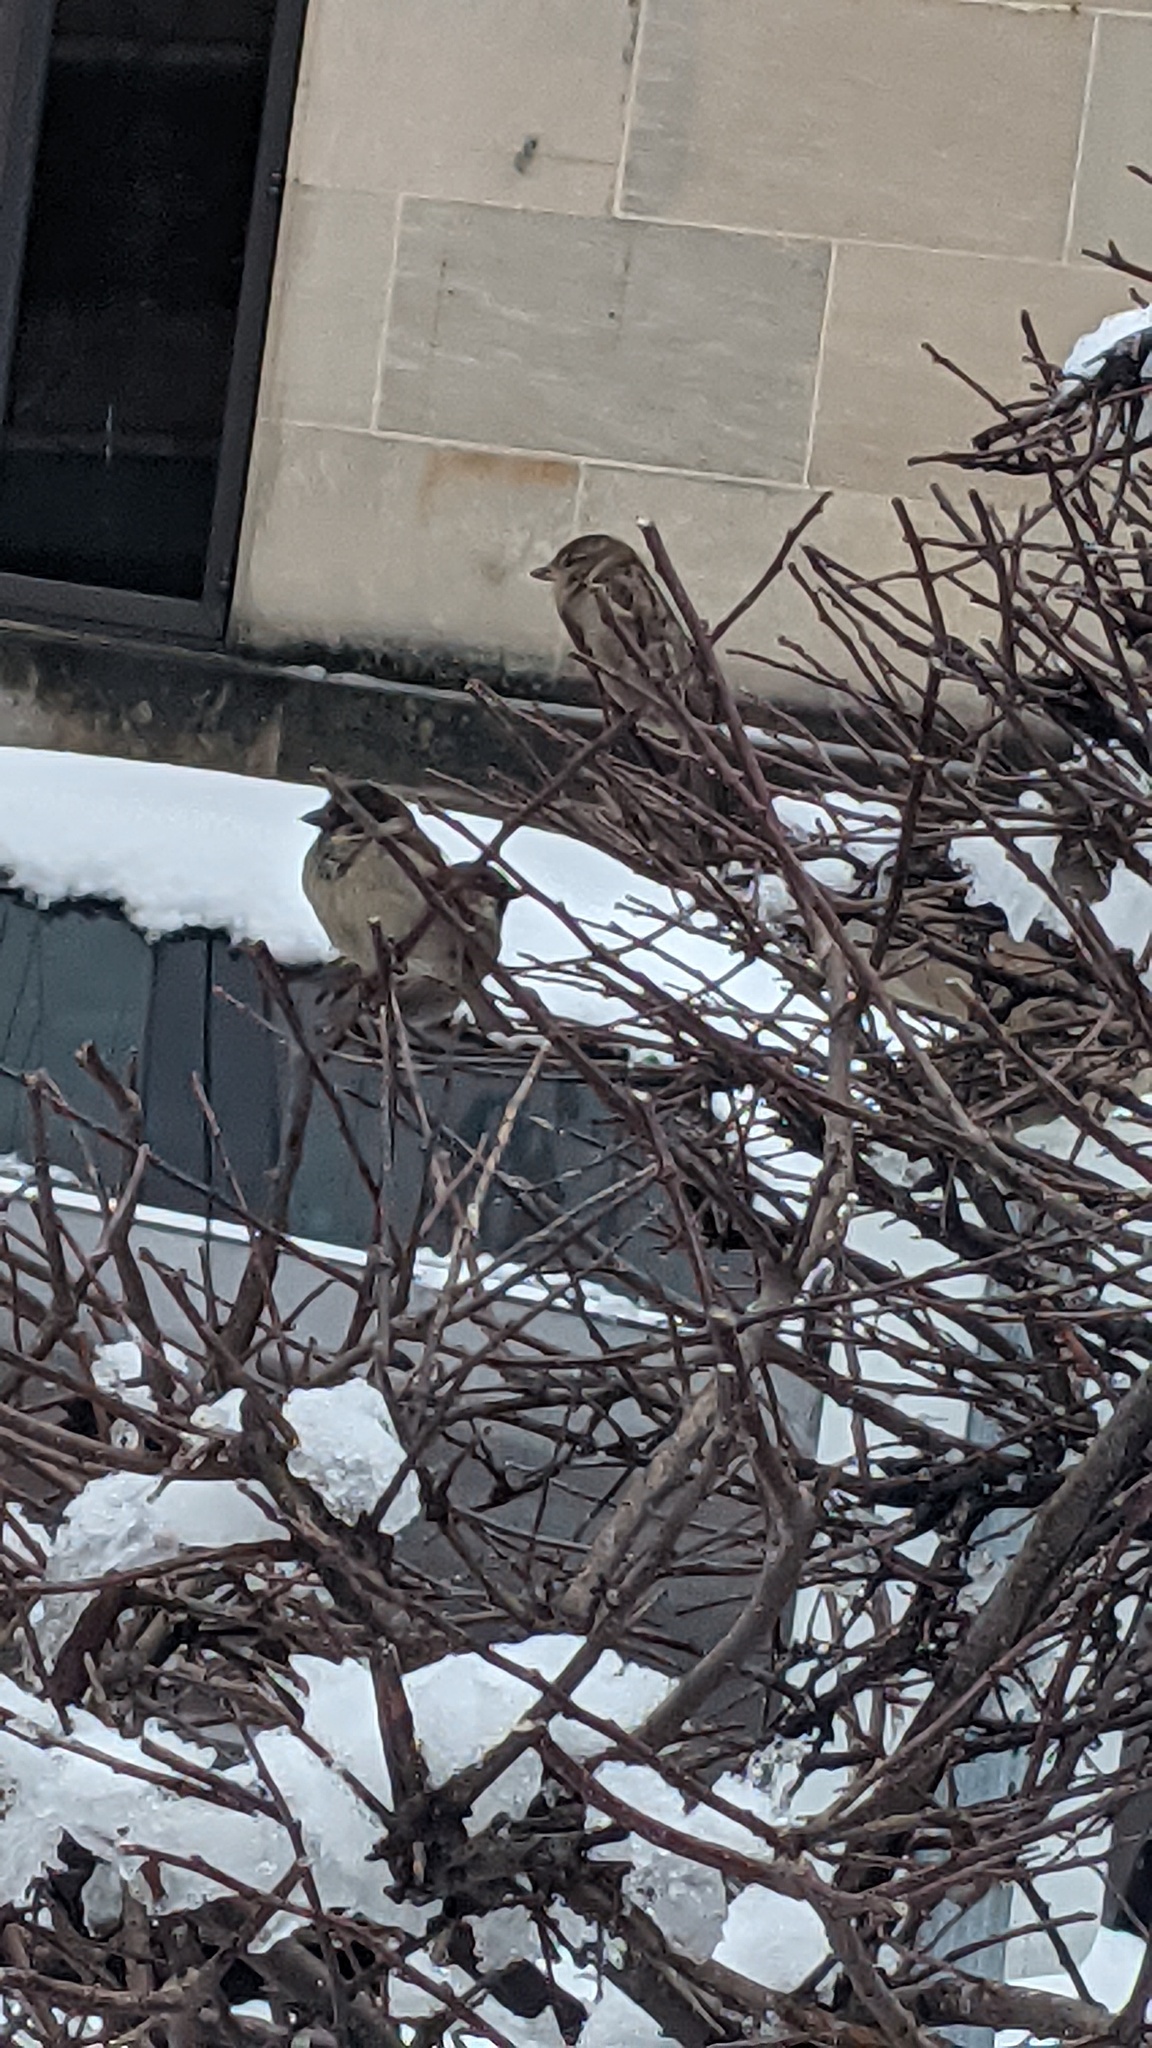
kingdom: Animalia
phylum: Chordata
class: Aves
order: Passeriformes
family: Passeridae
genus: Passer
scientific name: Passer domesticus
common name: House sparrow
